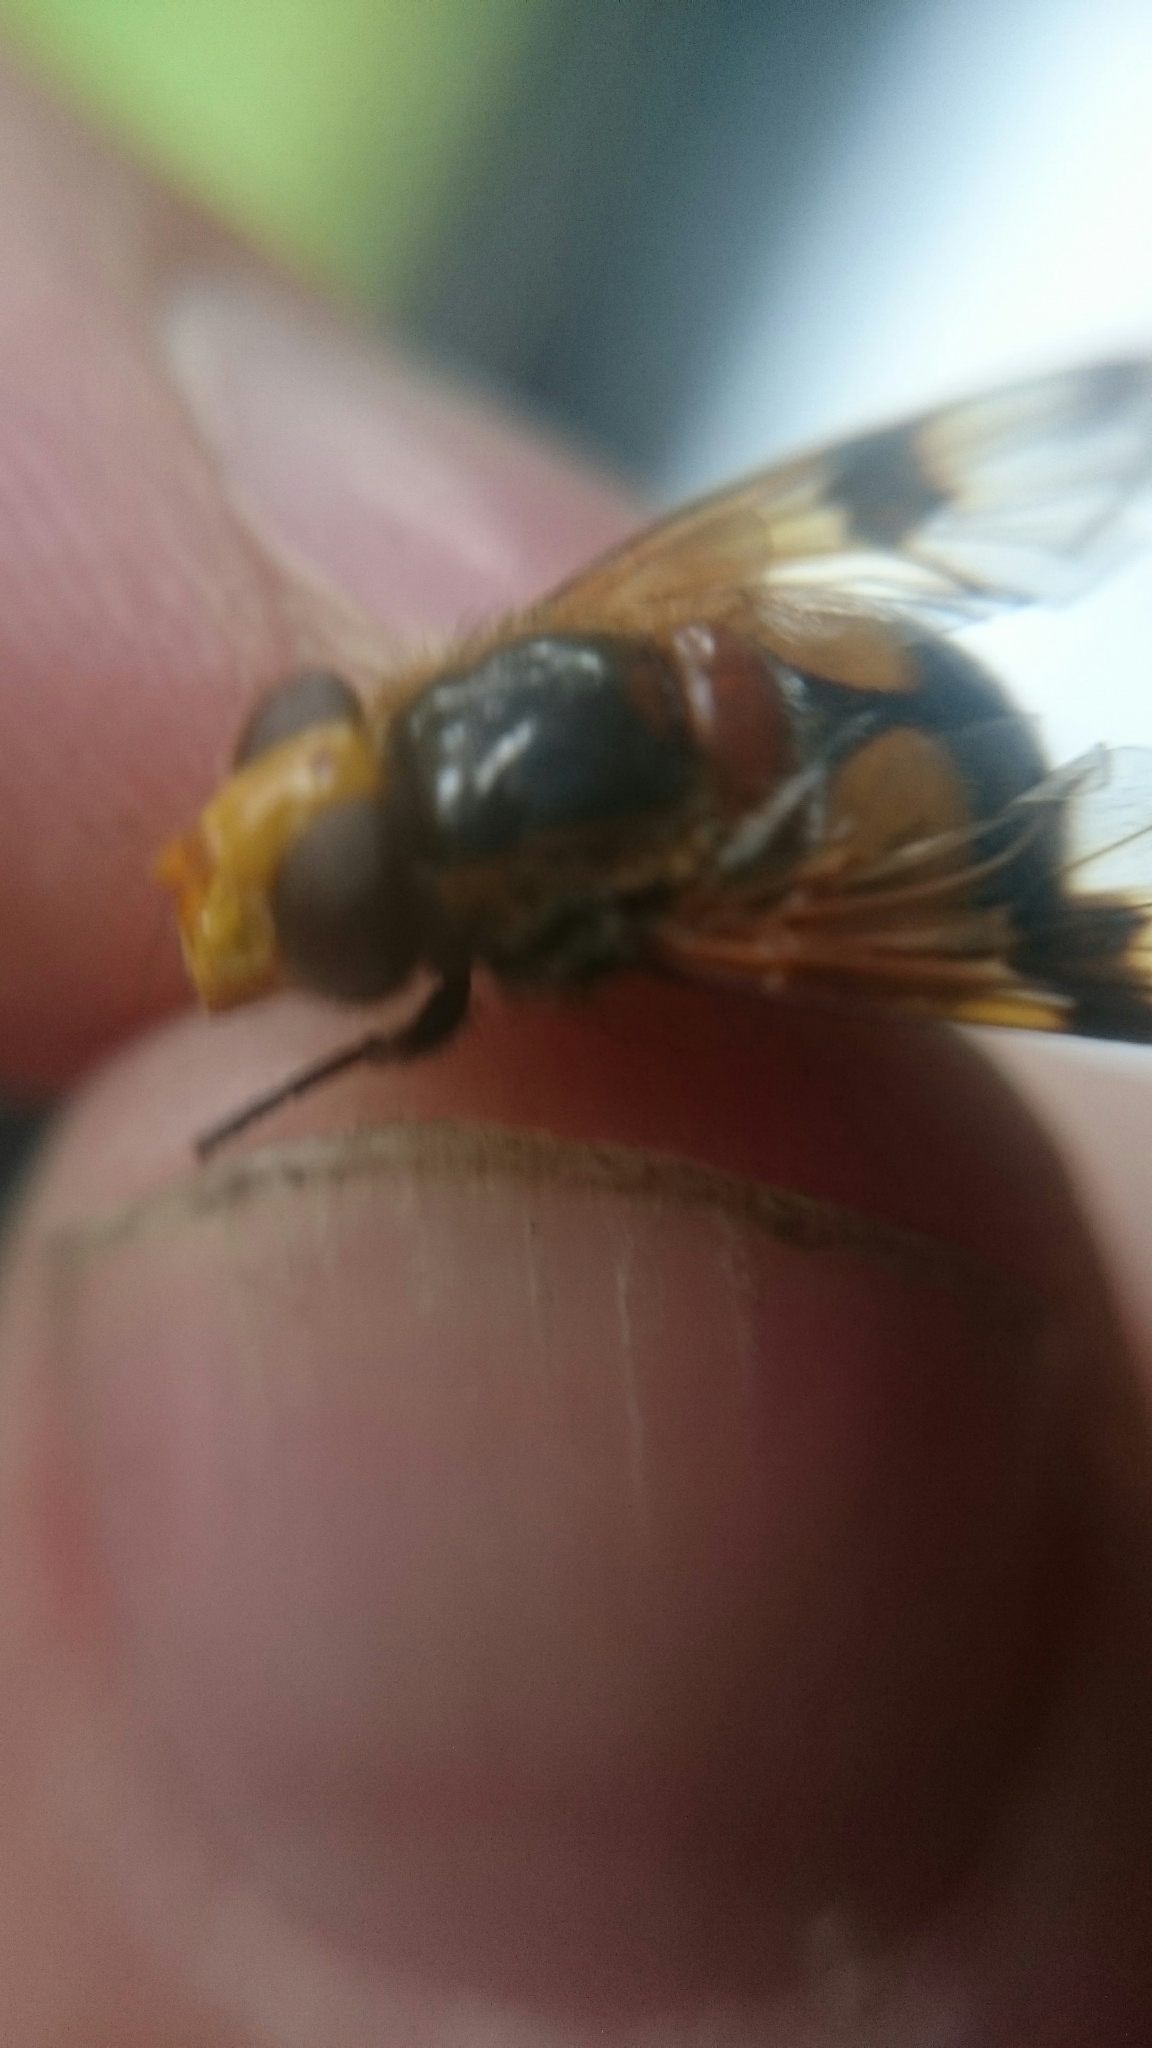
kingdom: Animalia
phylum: Arthropoda
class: Insecta
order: Diptera
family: Syrphidae
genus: Volucella
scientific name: Volucella inflata
